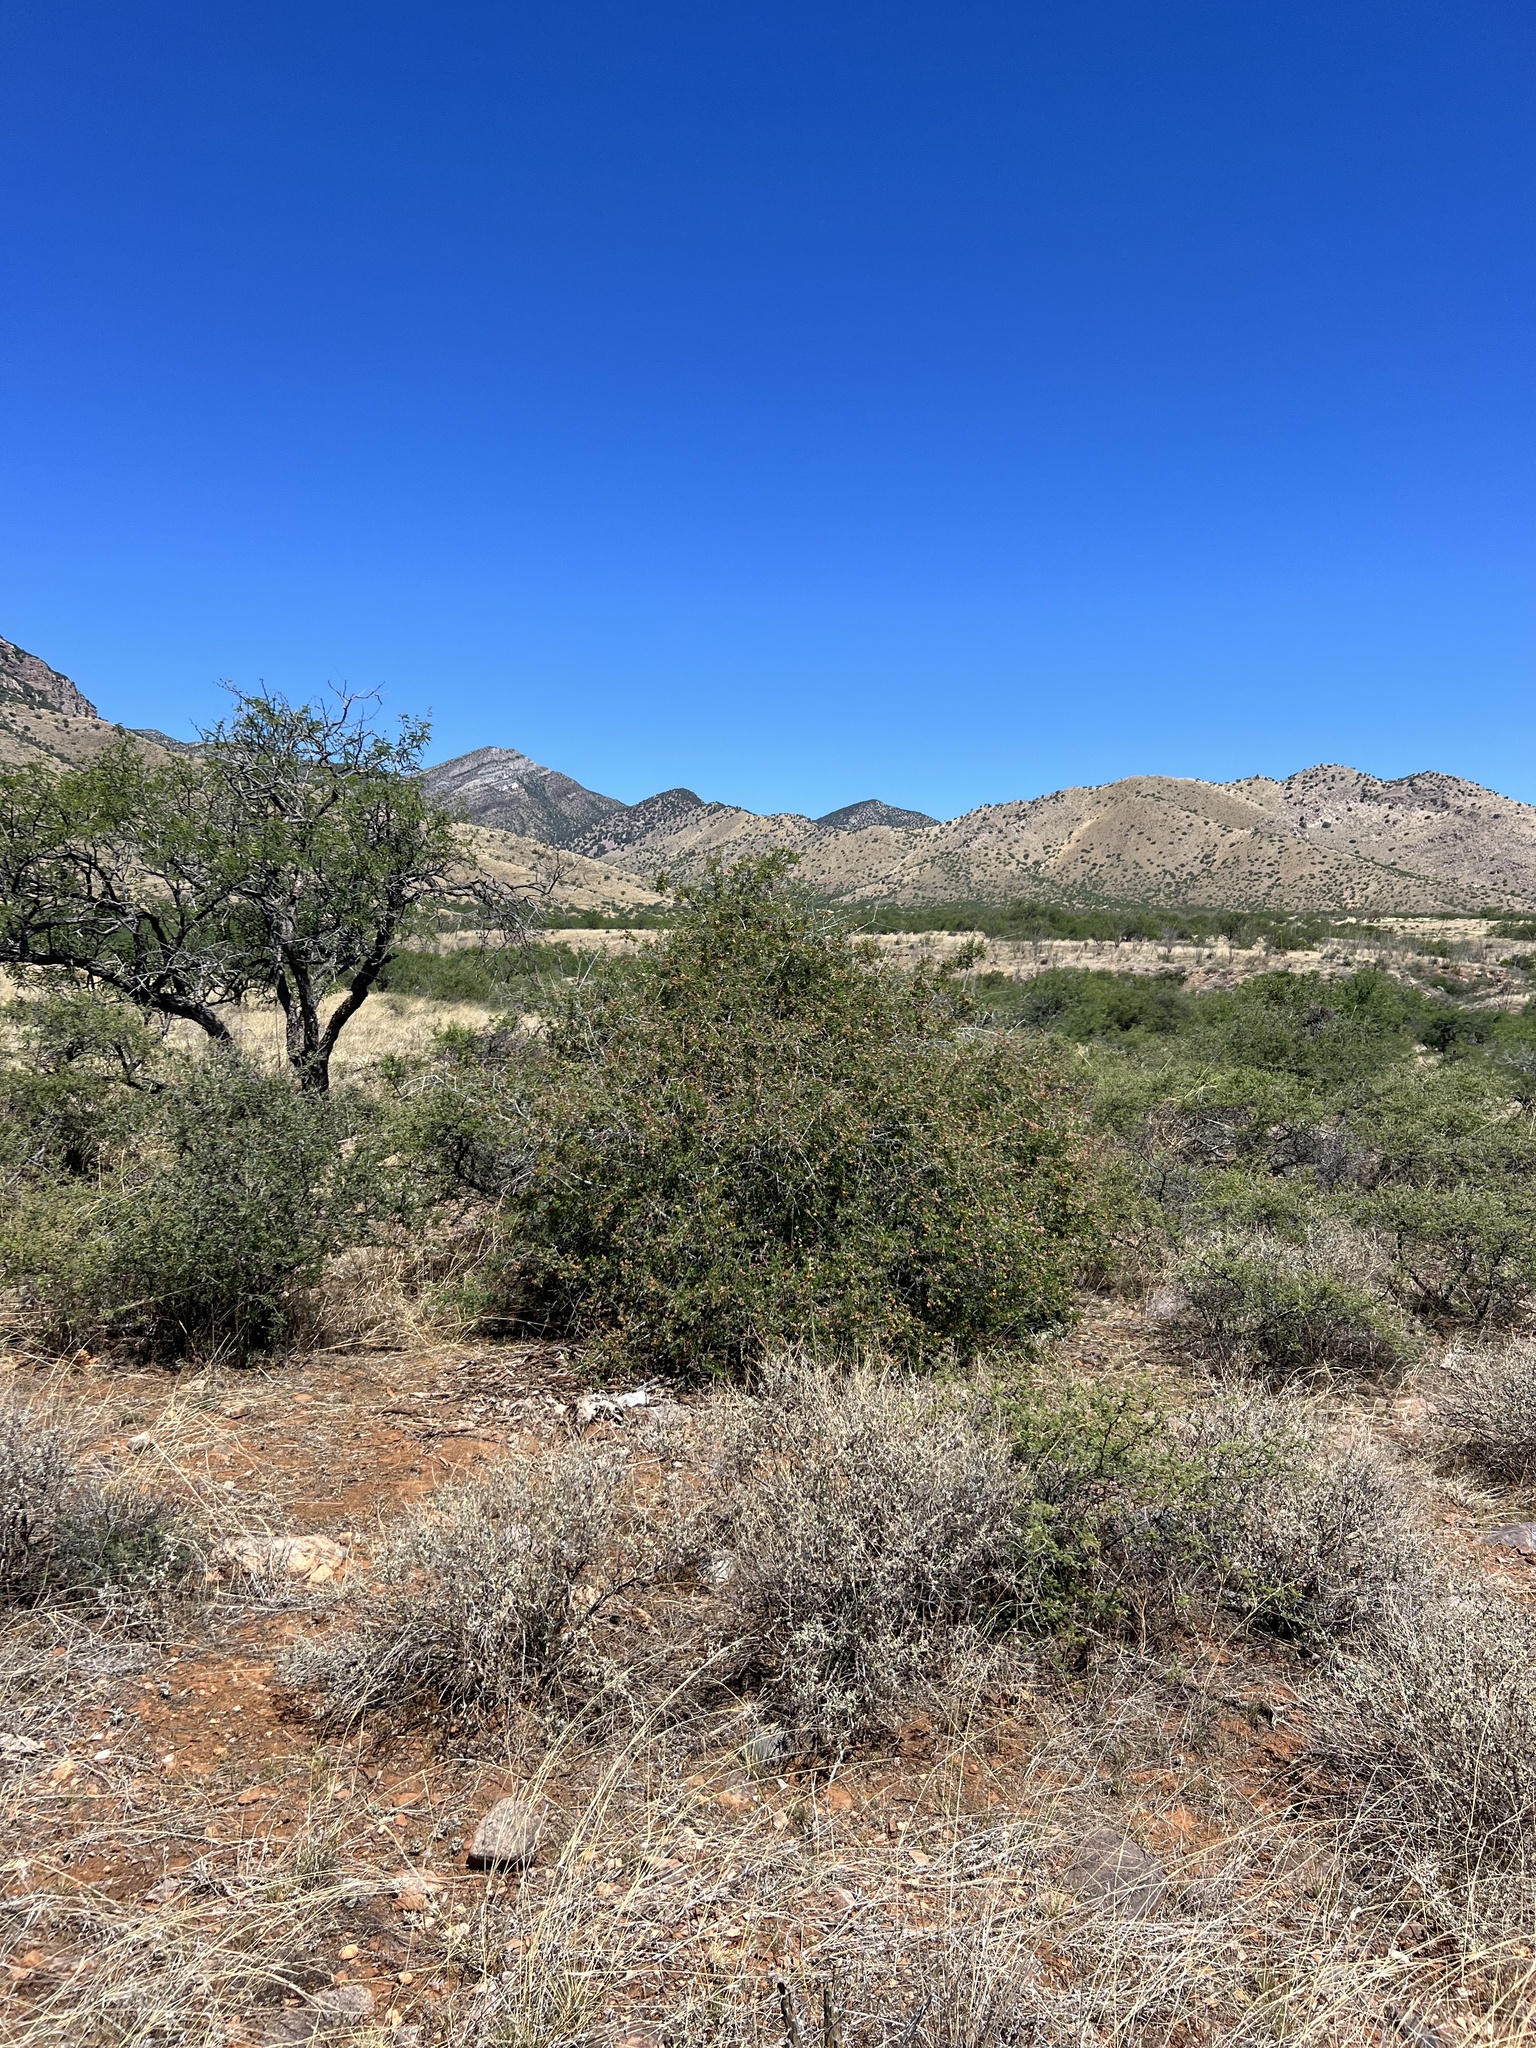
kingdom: Plantae
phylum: Tracheophyta
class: Magnoliopsida
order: Sapindales
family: Anacardiaceae
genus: Rhus
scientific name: Rhus microphylla
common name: Desert sumac
